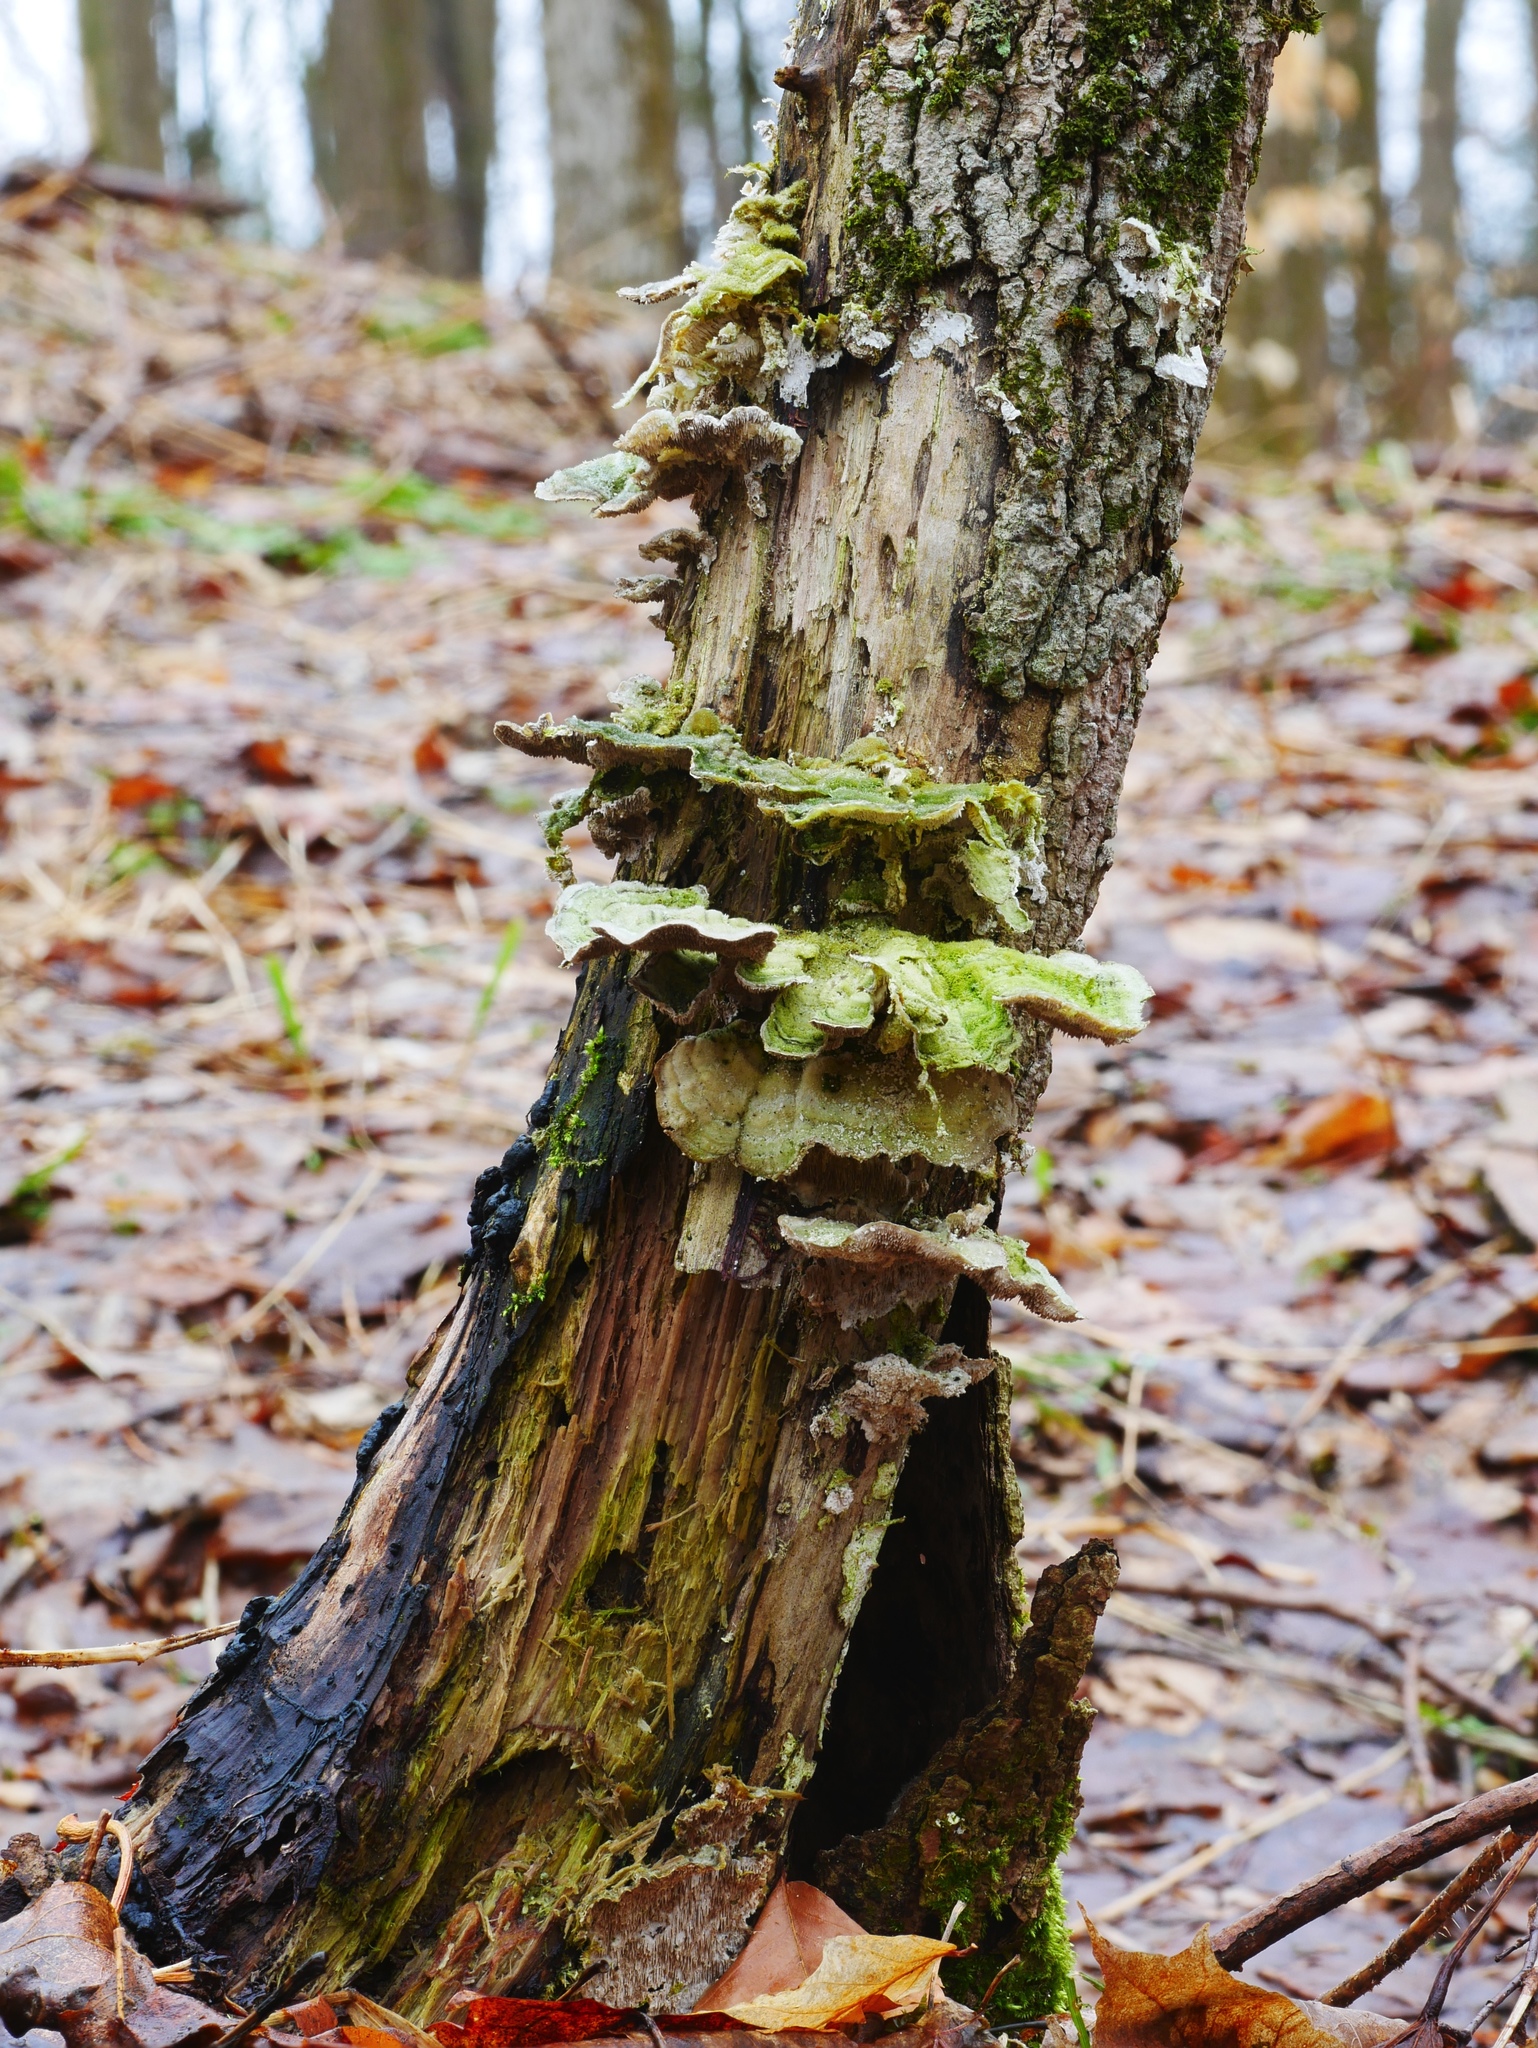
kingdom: Fungi
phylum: Basidiomycota
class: Agaricomycetes
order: Polyporales
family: Cerrenaceae
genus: Cerrena
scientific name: Cerrena unicolor
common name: Mossy maze polypore
